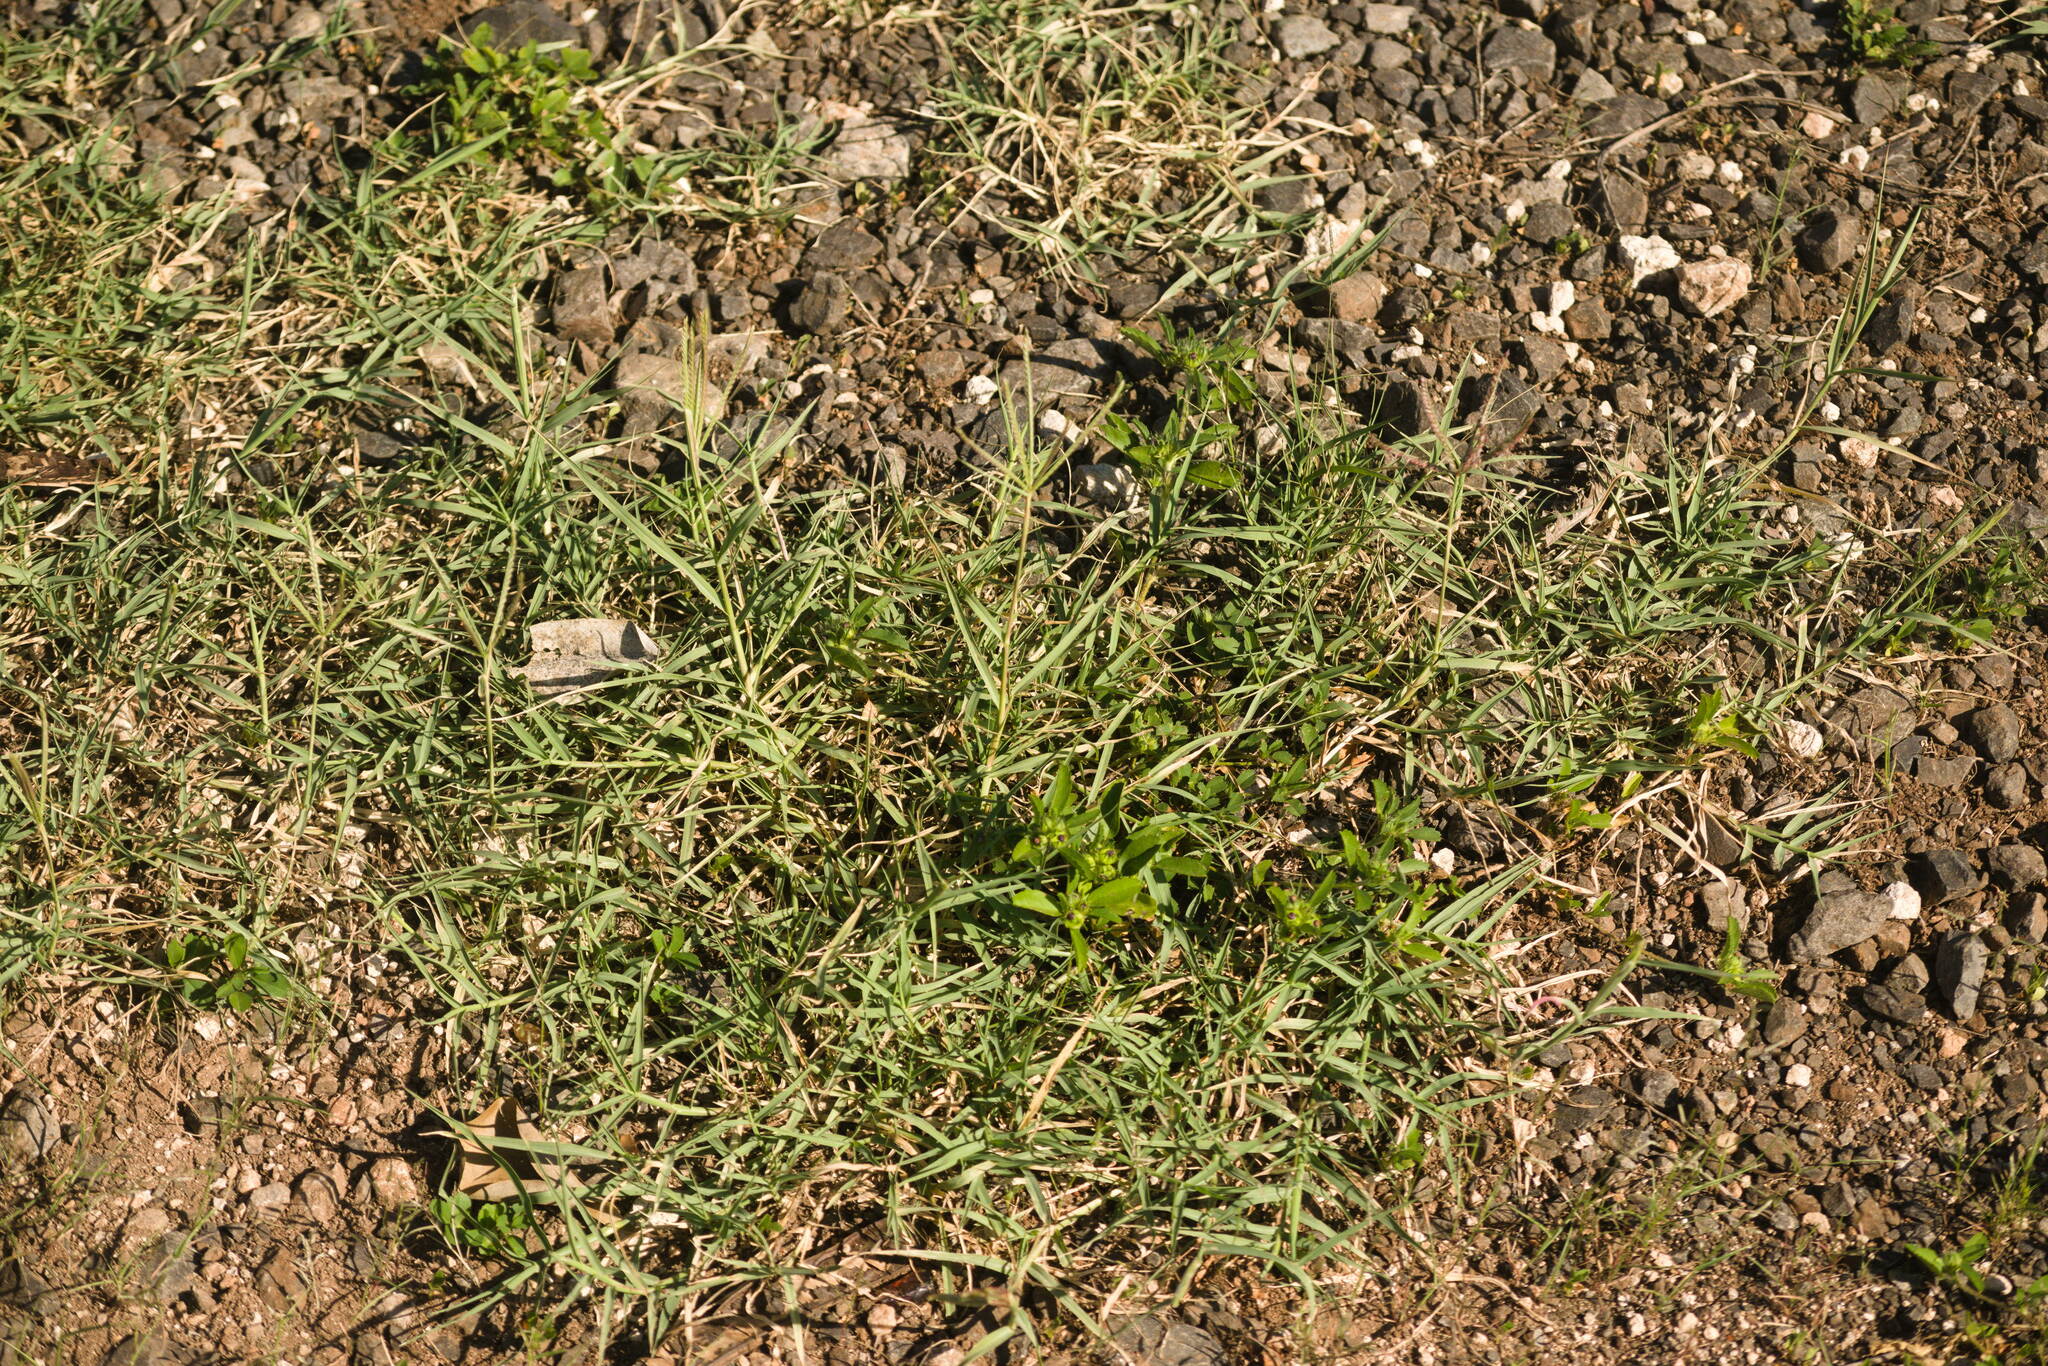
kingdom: Plantae
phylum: Tracheophyta
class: Liliopsida
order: Poales
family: Poaceae
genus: Cynodon
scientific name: Cynodon dactylon
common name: Bermuda grass
